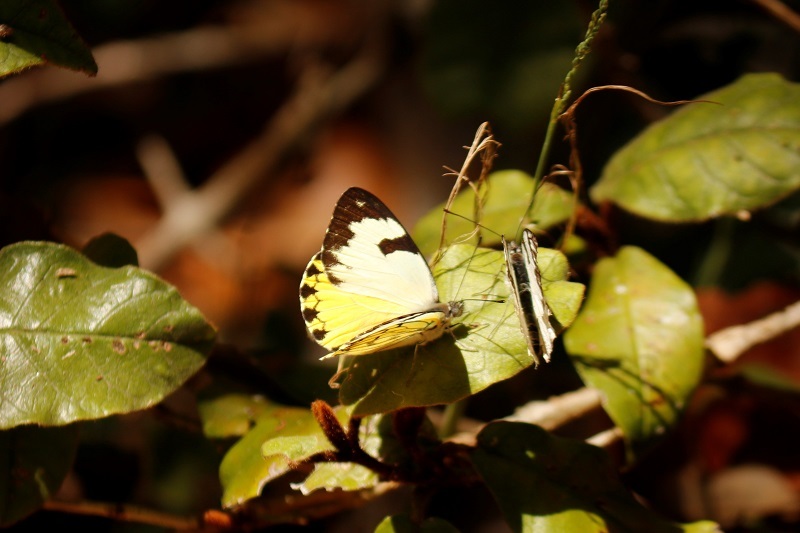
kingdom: Animalia
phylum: Arthropoda
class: Insecta
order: Lepidoptera
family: Pieridae
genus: Belenois
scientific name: Belenois zochalia
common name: Forest caper white
